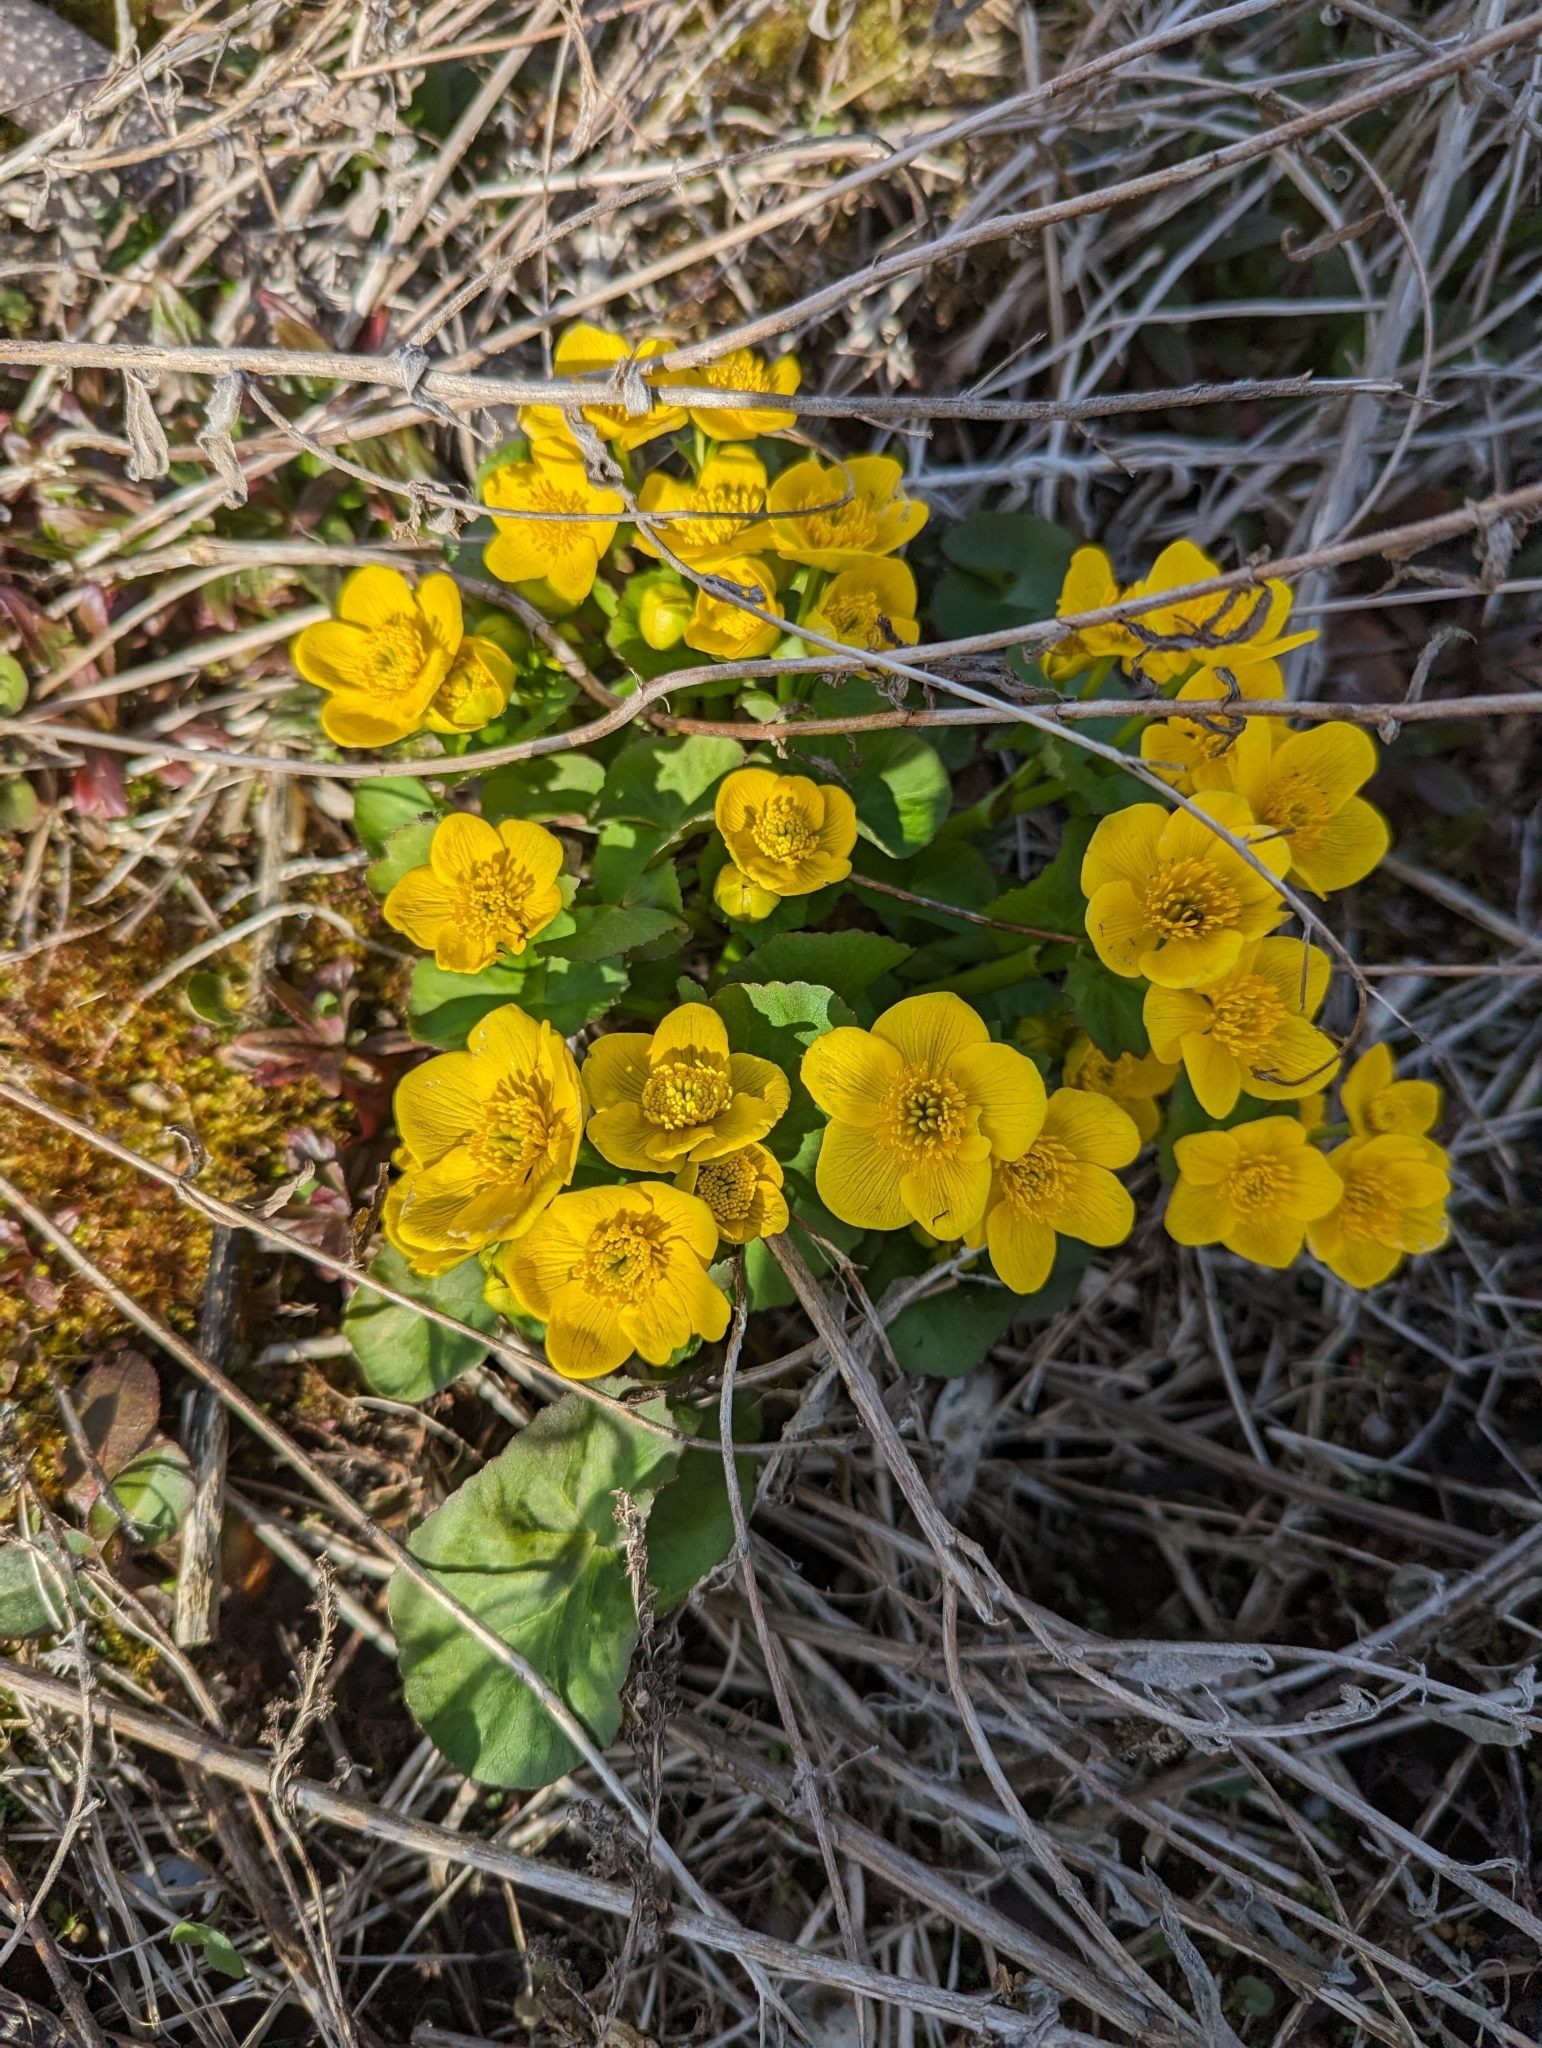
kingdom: Plantae
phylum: Tracheophyta
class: Magnoliopsida
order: Ranunculales
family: Ranunculaceae
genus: Caltha
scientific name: Caltha palustris
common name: Marsh marigold
